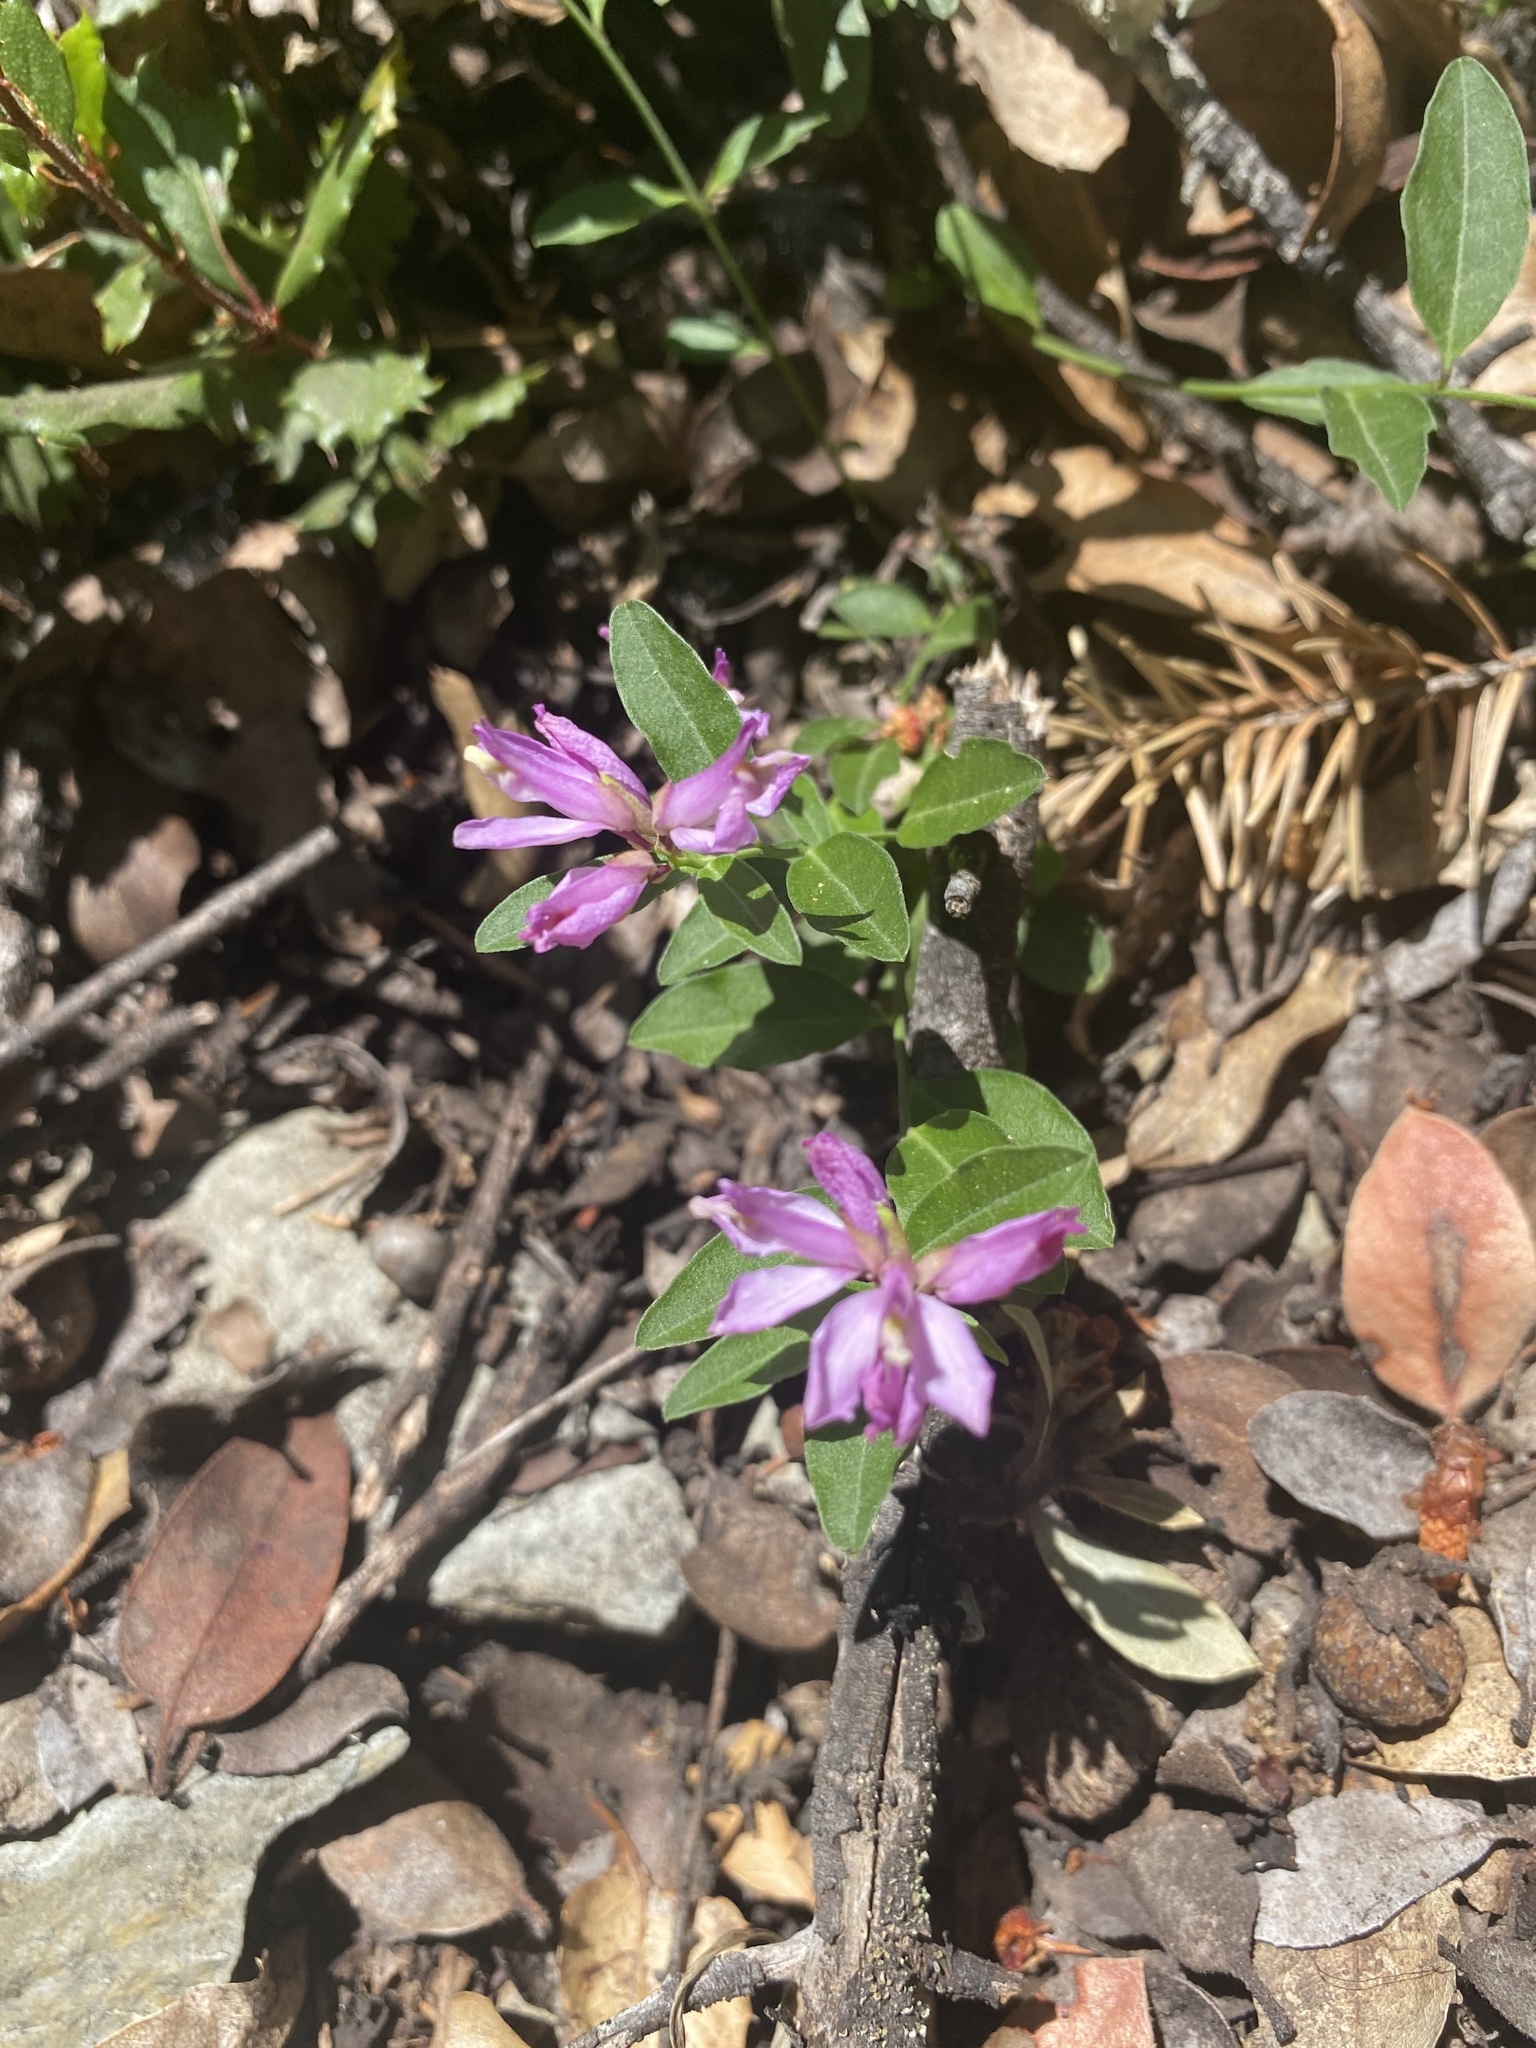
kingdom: Plantae
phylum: Tracheophyta
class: Magnoliopsida
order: Fabales
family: Polygalaceae
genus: Rhinotropis
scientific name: Rhinotropis californica
